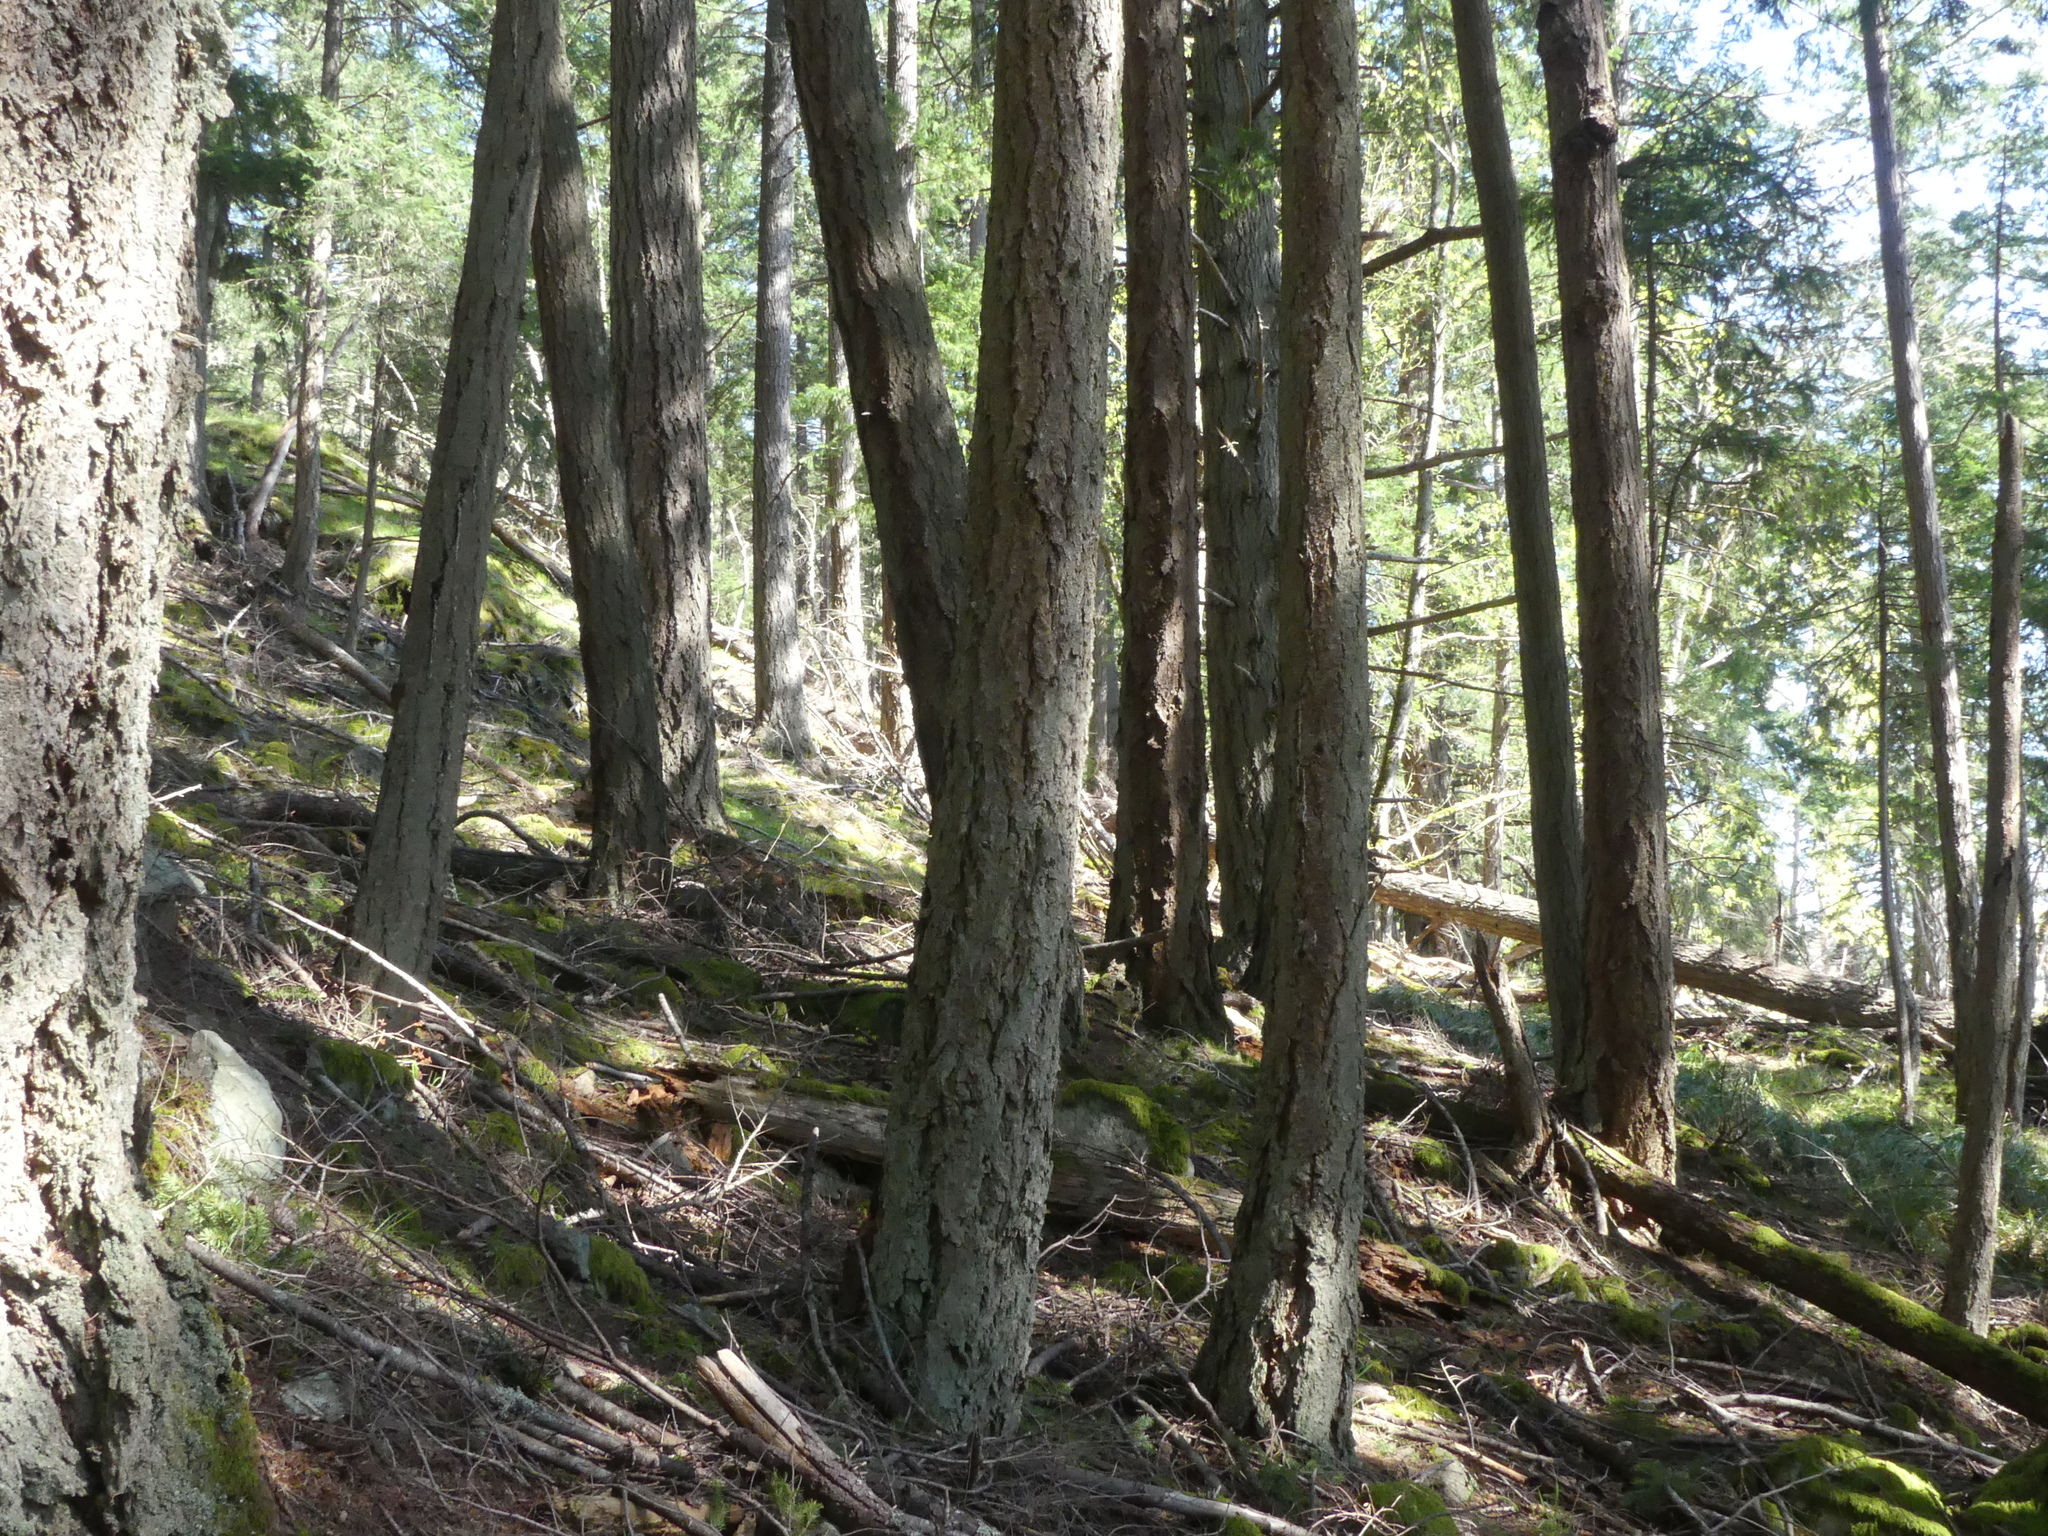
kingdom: Plantae
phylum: Tracheophyta
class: Pinopsida
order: Pinales
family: Pinaceae
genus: Pseudotsuga
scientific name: Pseudotsuga menziesii
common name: Douglas fir
